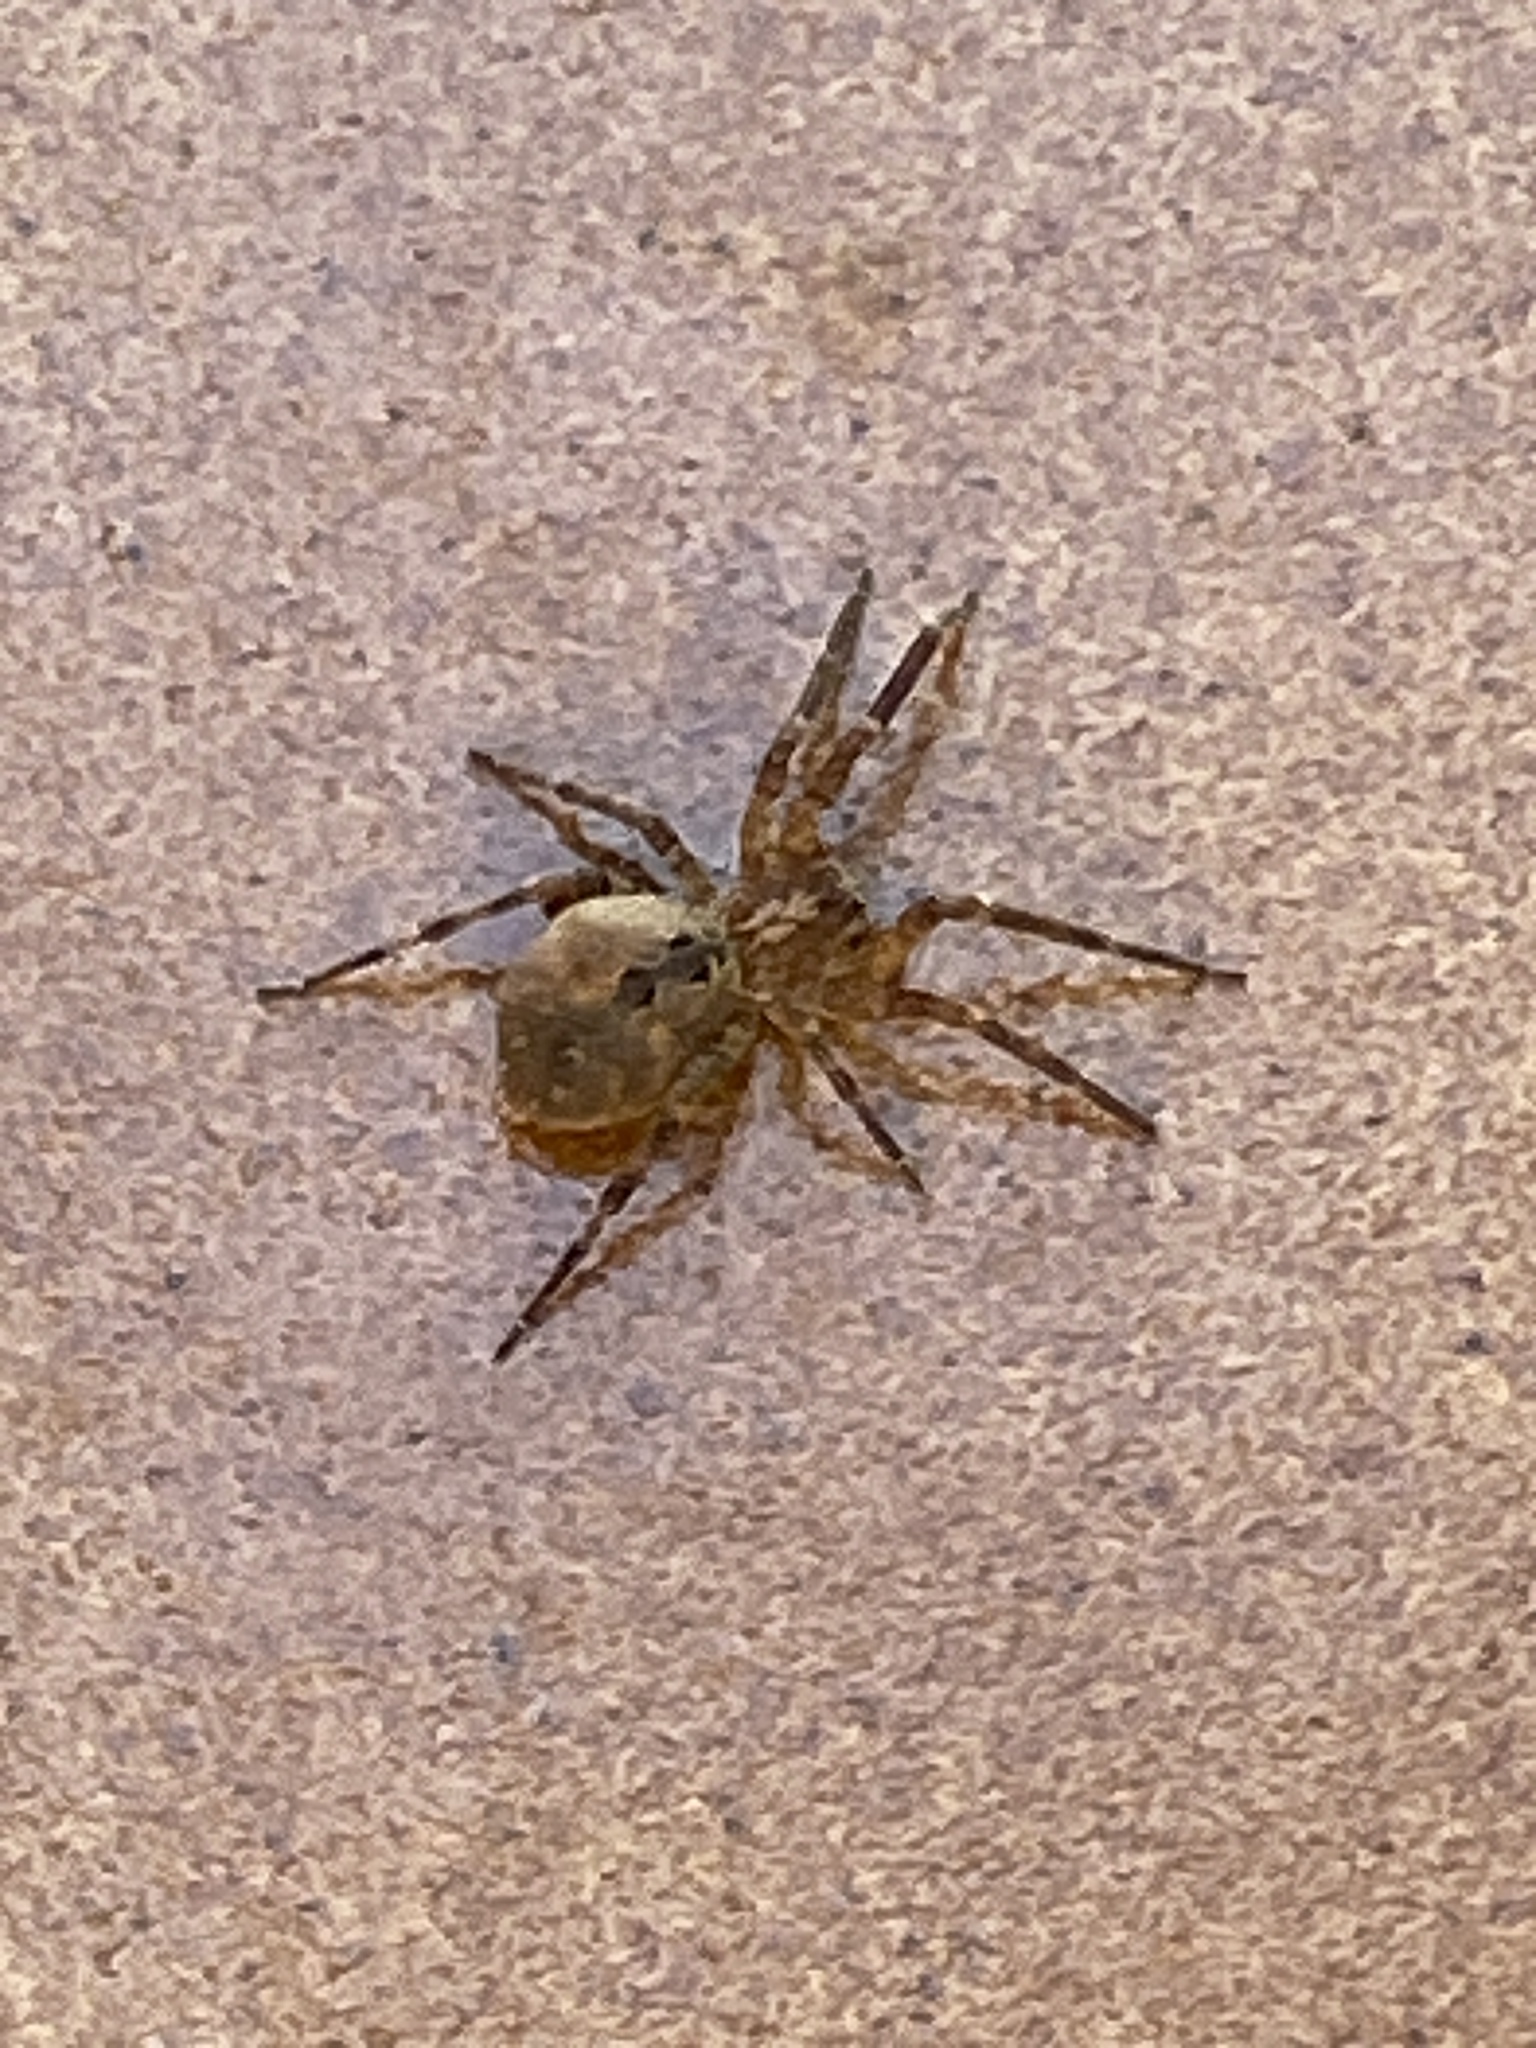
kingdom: Animalia
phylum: Arthropoda
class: Arachnida
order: Araneae
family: Zoropsidae
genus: Zoropsis
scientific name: Zoropsis spinimana
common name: Zoropsid spider
